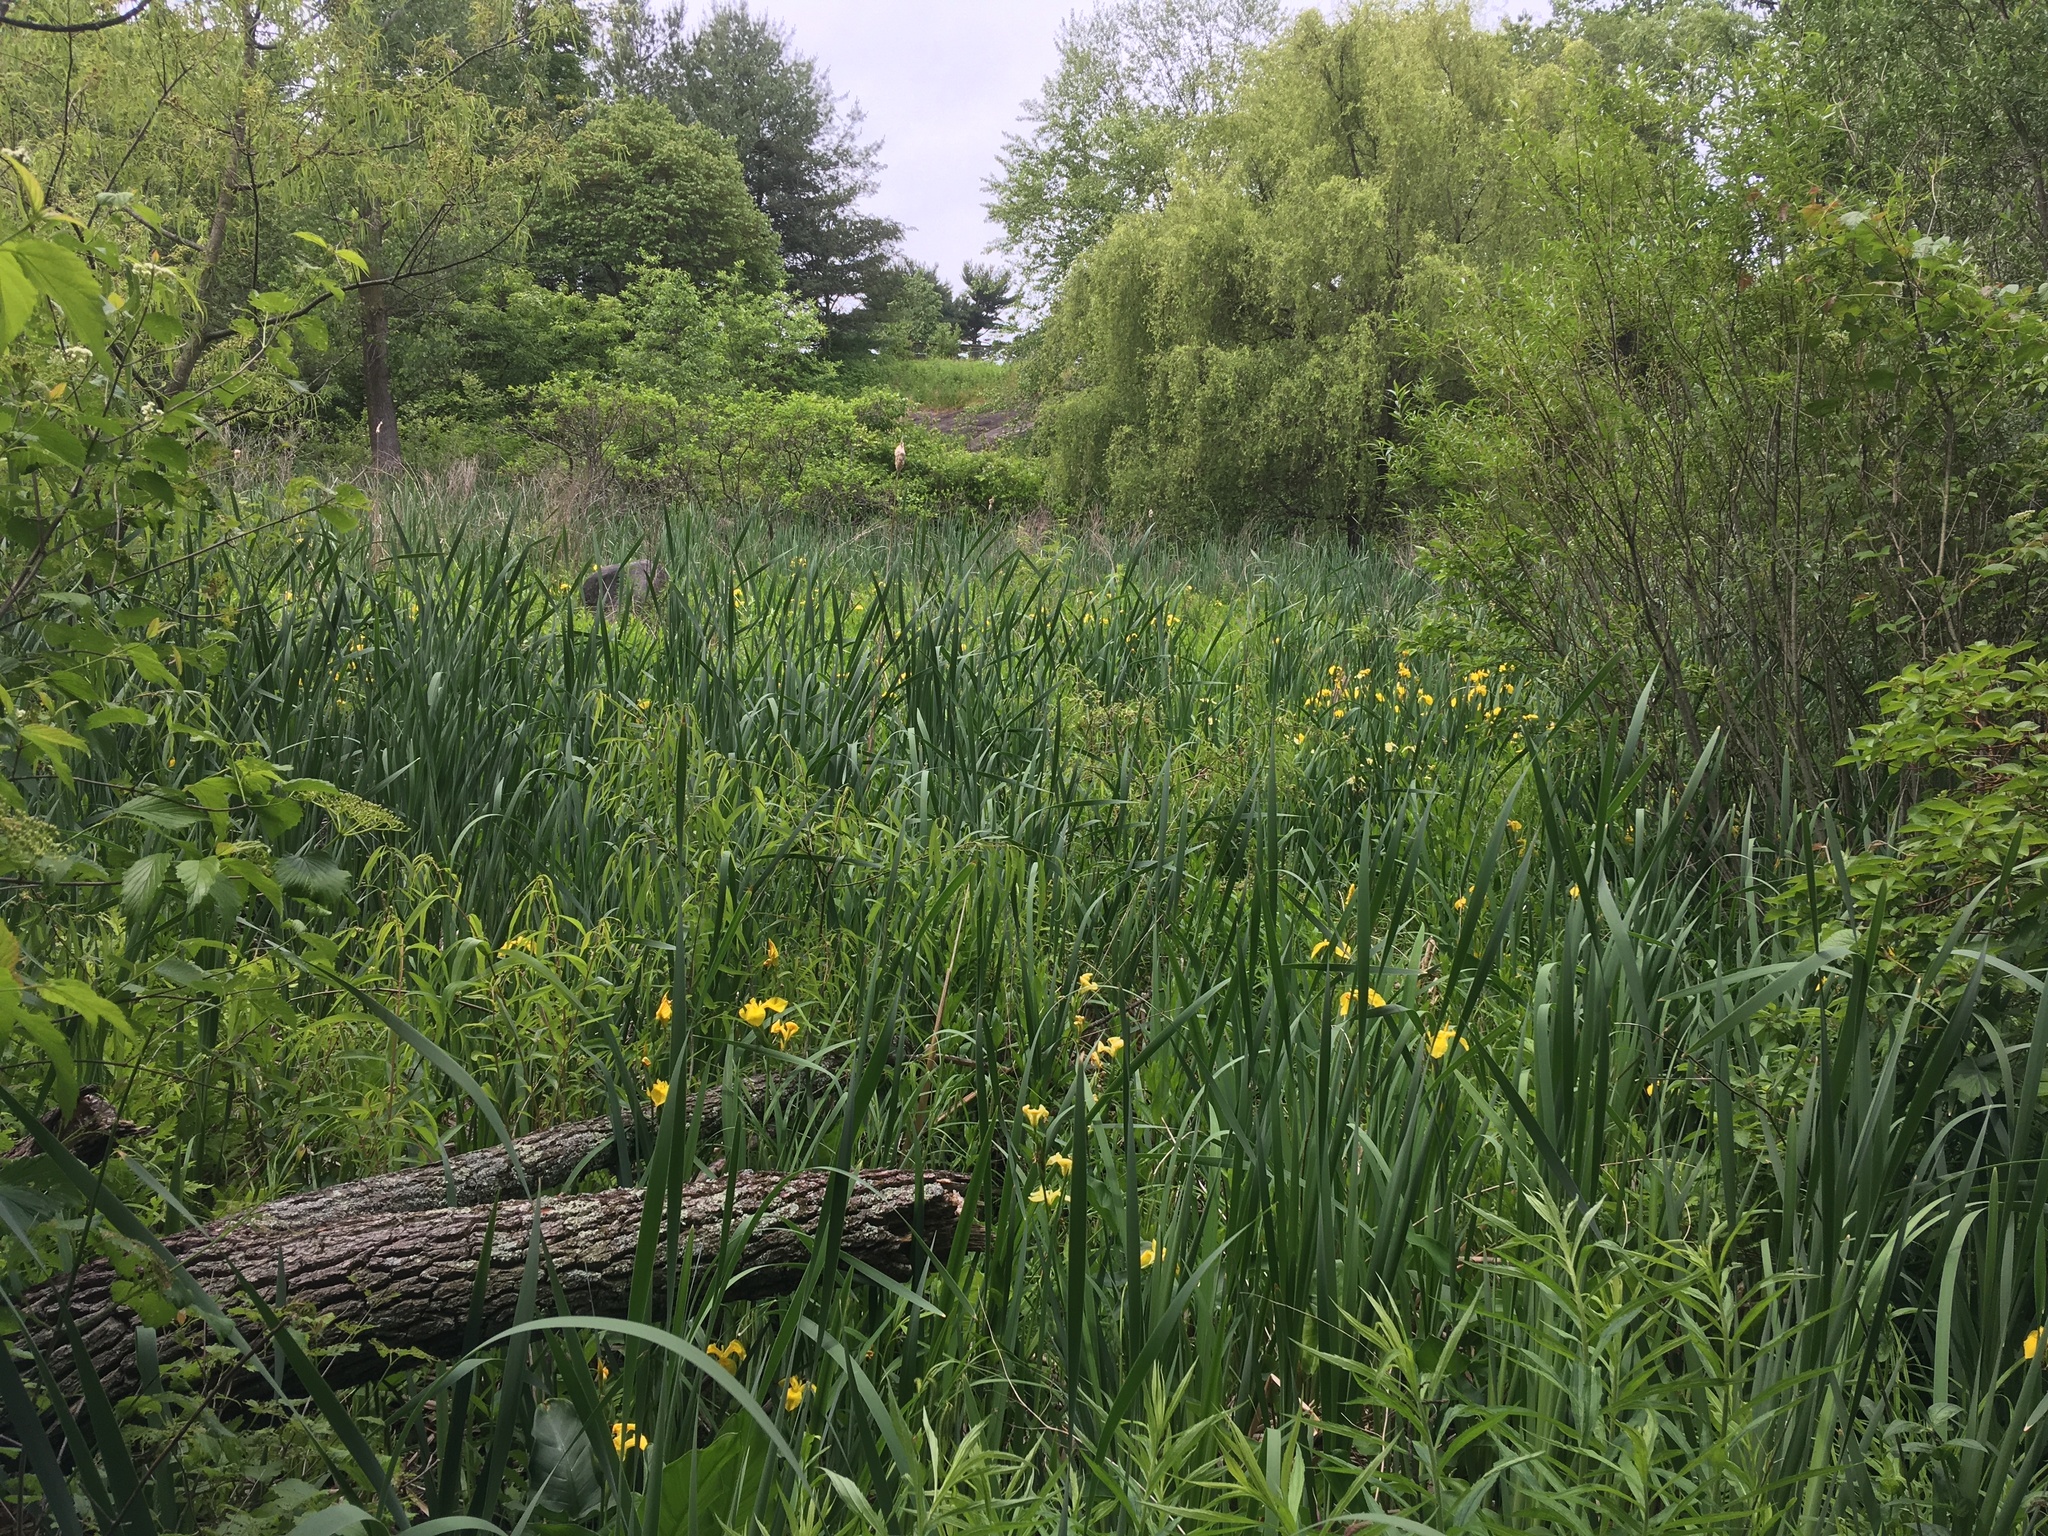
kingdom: Plantae
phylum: Tracheophyta
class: Liliopsida
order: Asparagales
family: Iridaceae
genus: Iris
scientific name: Iris pseudacorus
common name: Yellow flag
